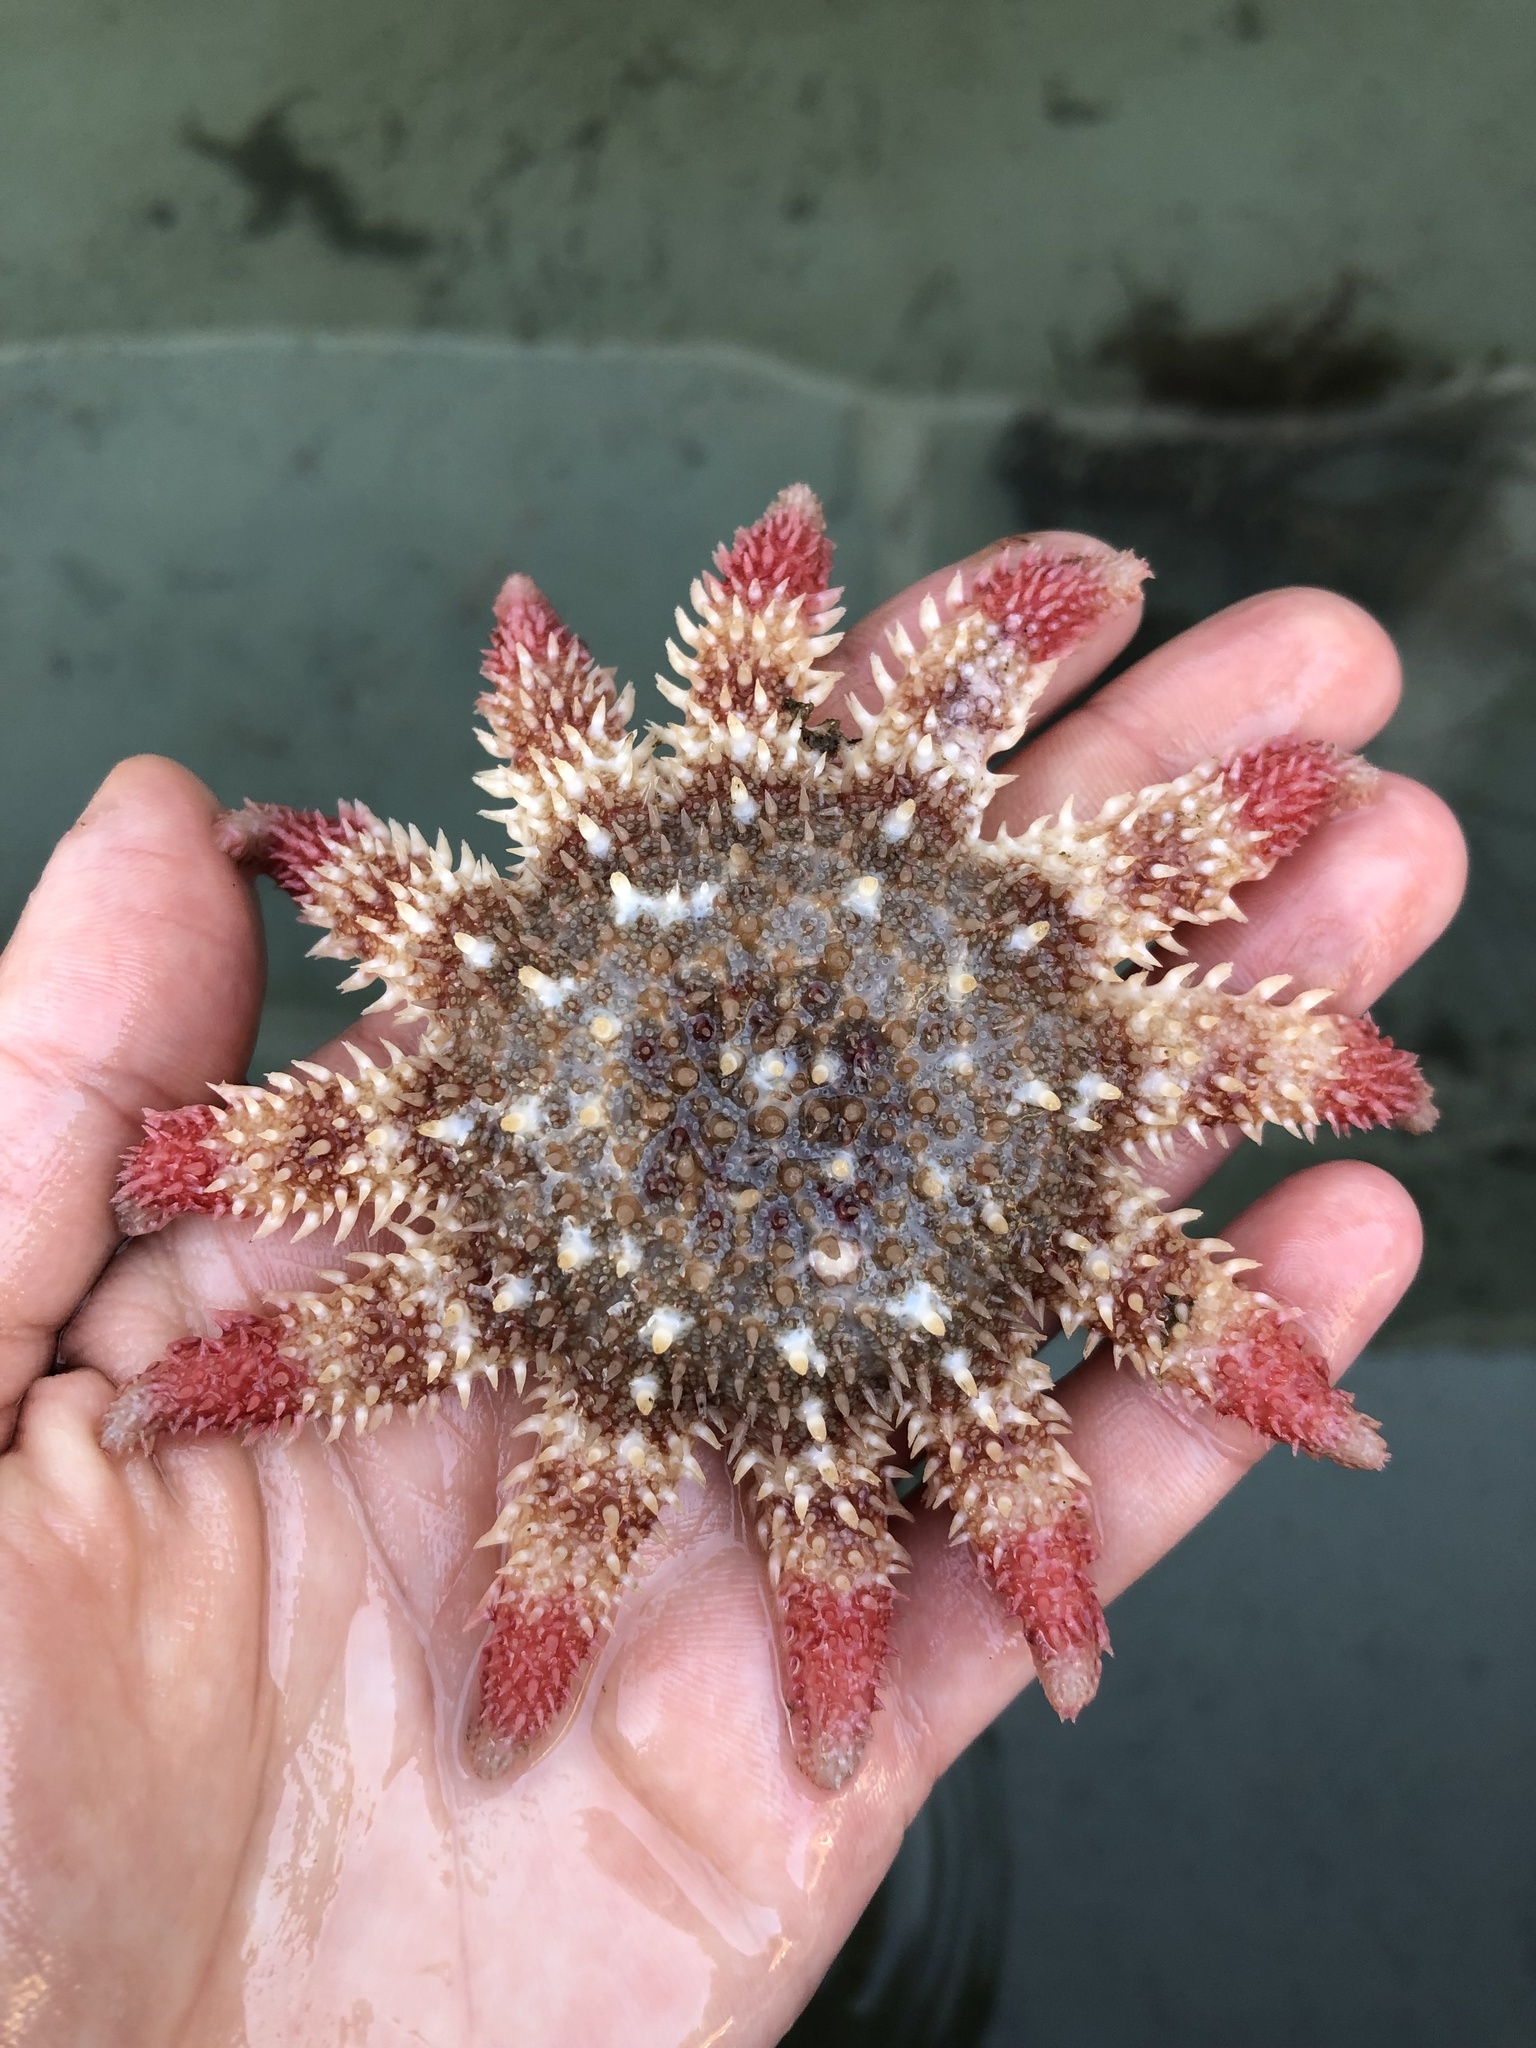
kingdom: Animalia
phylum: Echinodermata
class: Asteroidea
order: Valvatida
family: Solasteridae
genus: Crossaster
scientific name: Crossaster papposus
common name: Common sun star
